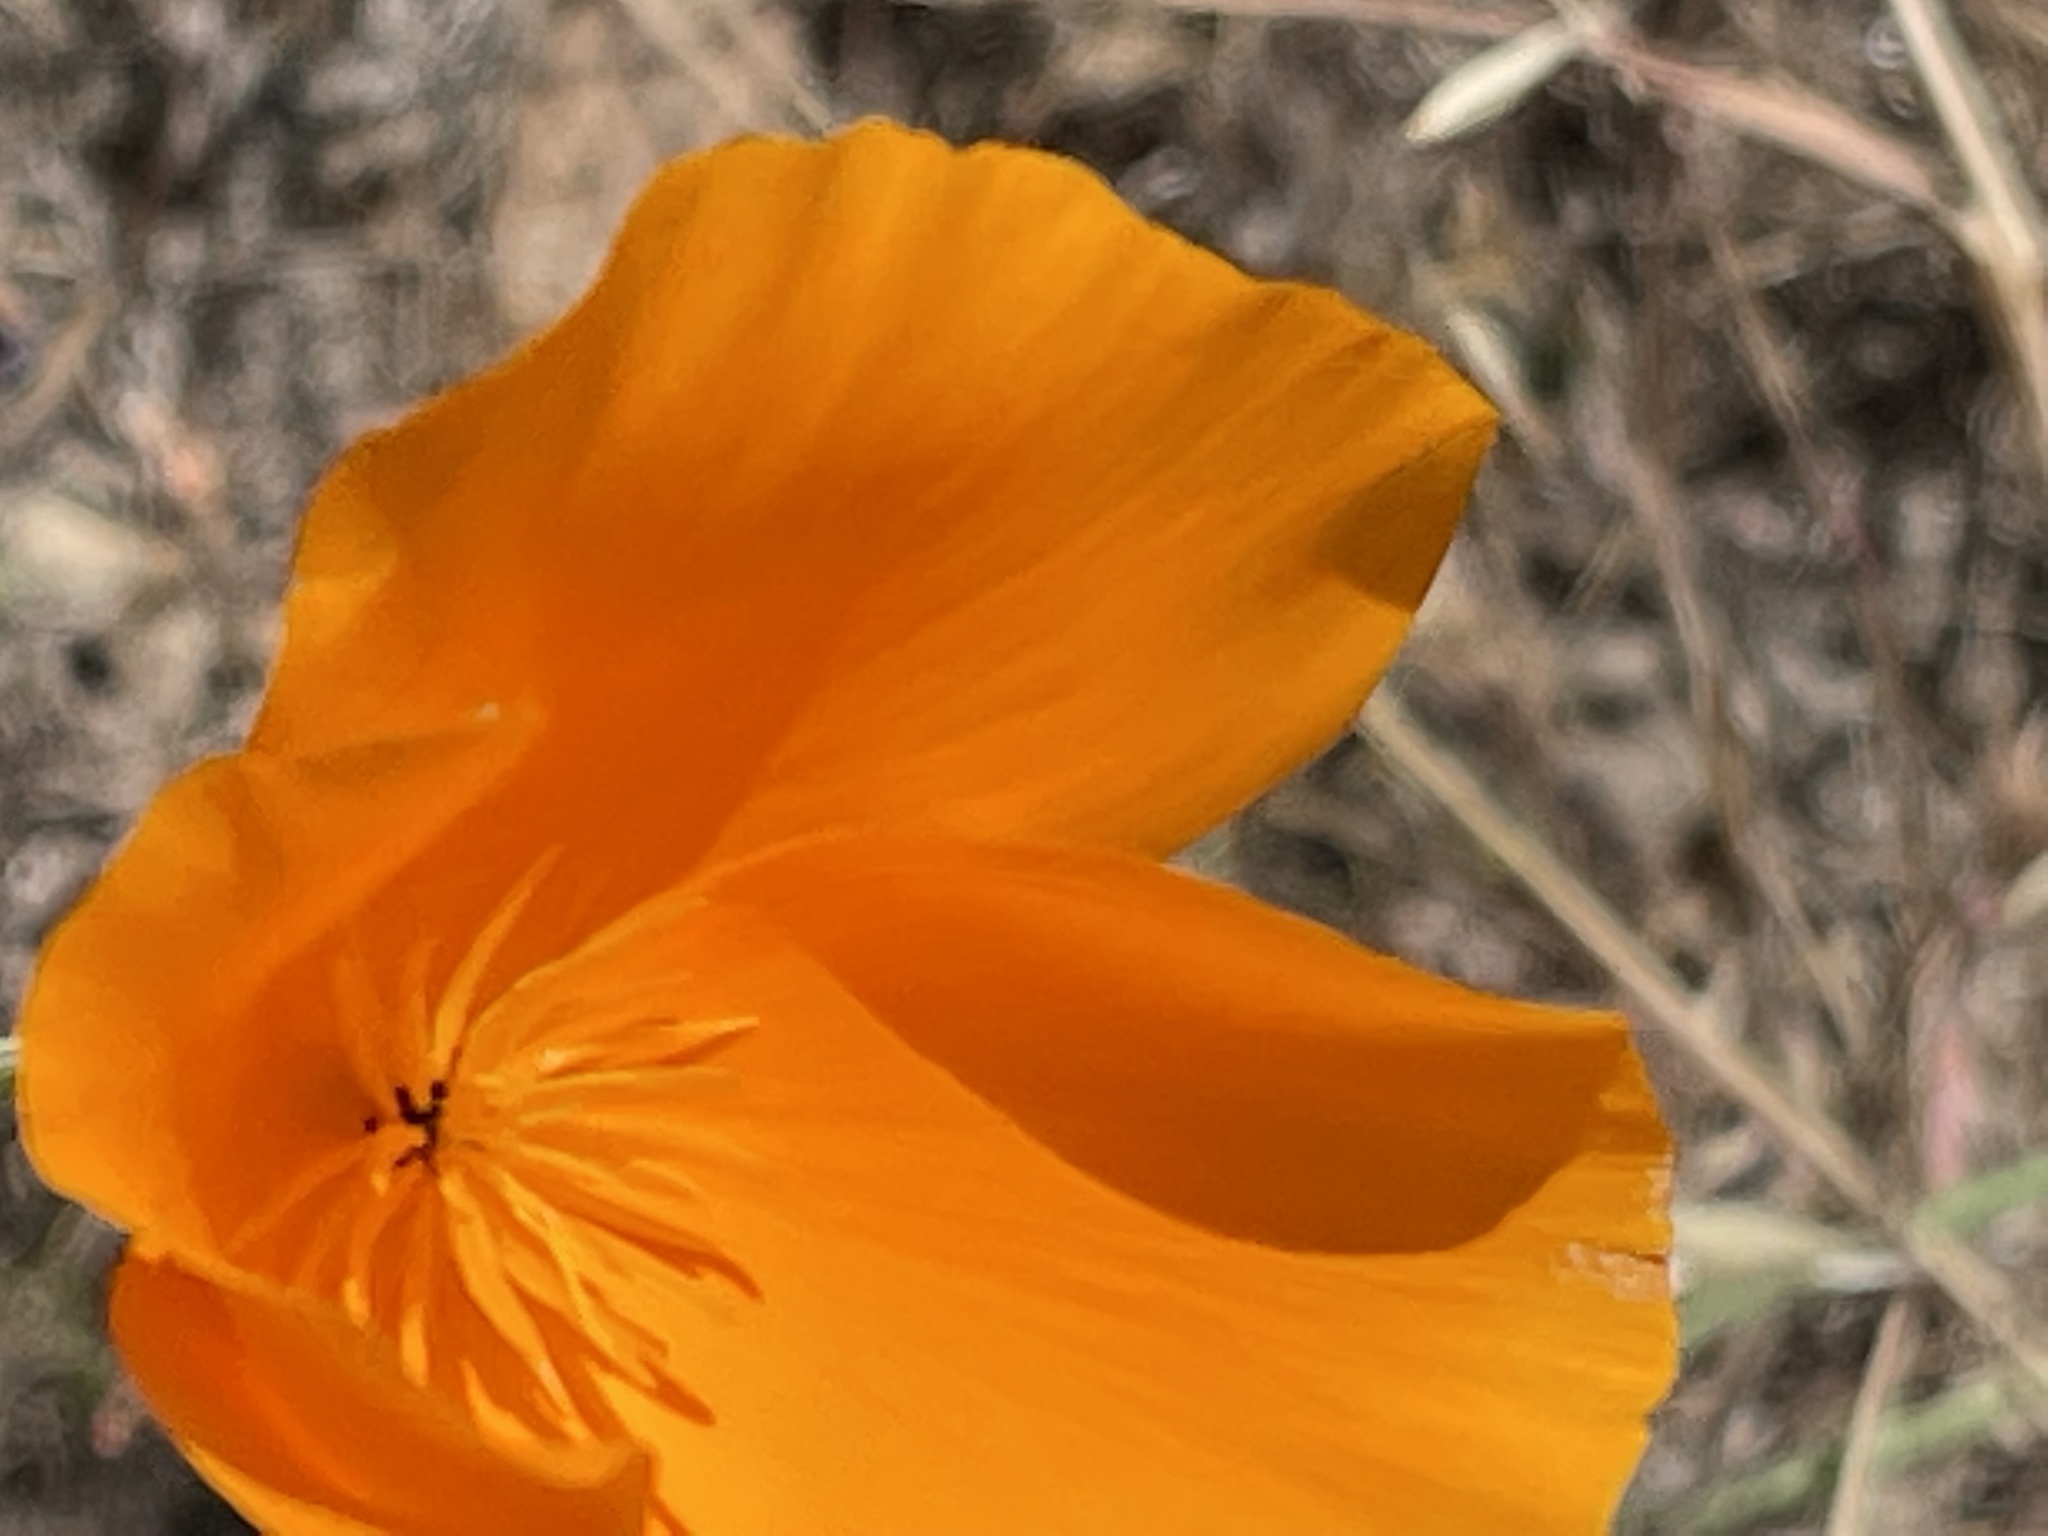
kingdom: Plantae
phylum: Tracheophyta
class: Magnoliopsida
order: Ranunculales
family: Papaveraceae
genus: Eschscholzia
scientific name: Eschscholzia californica
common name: California poppy
